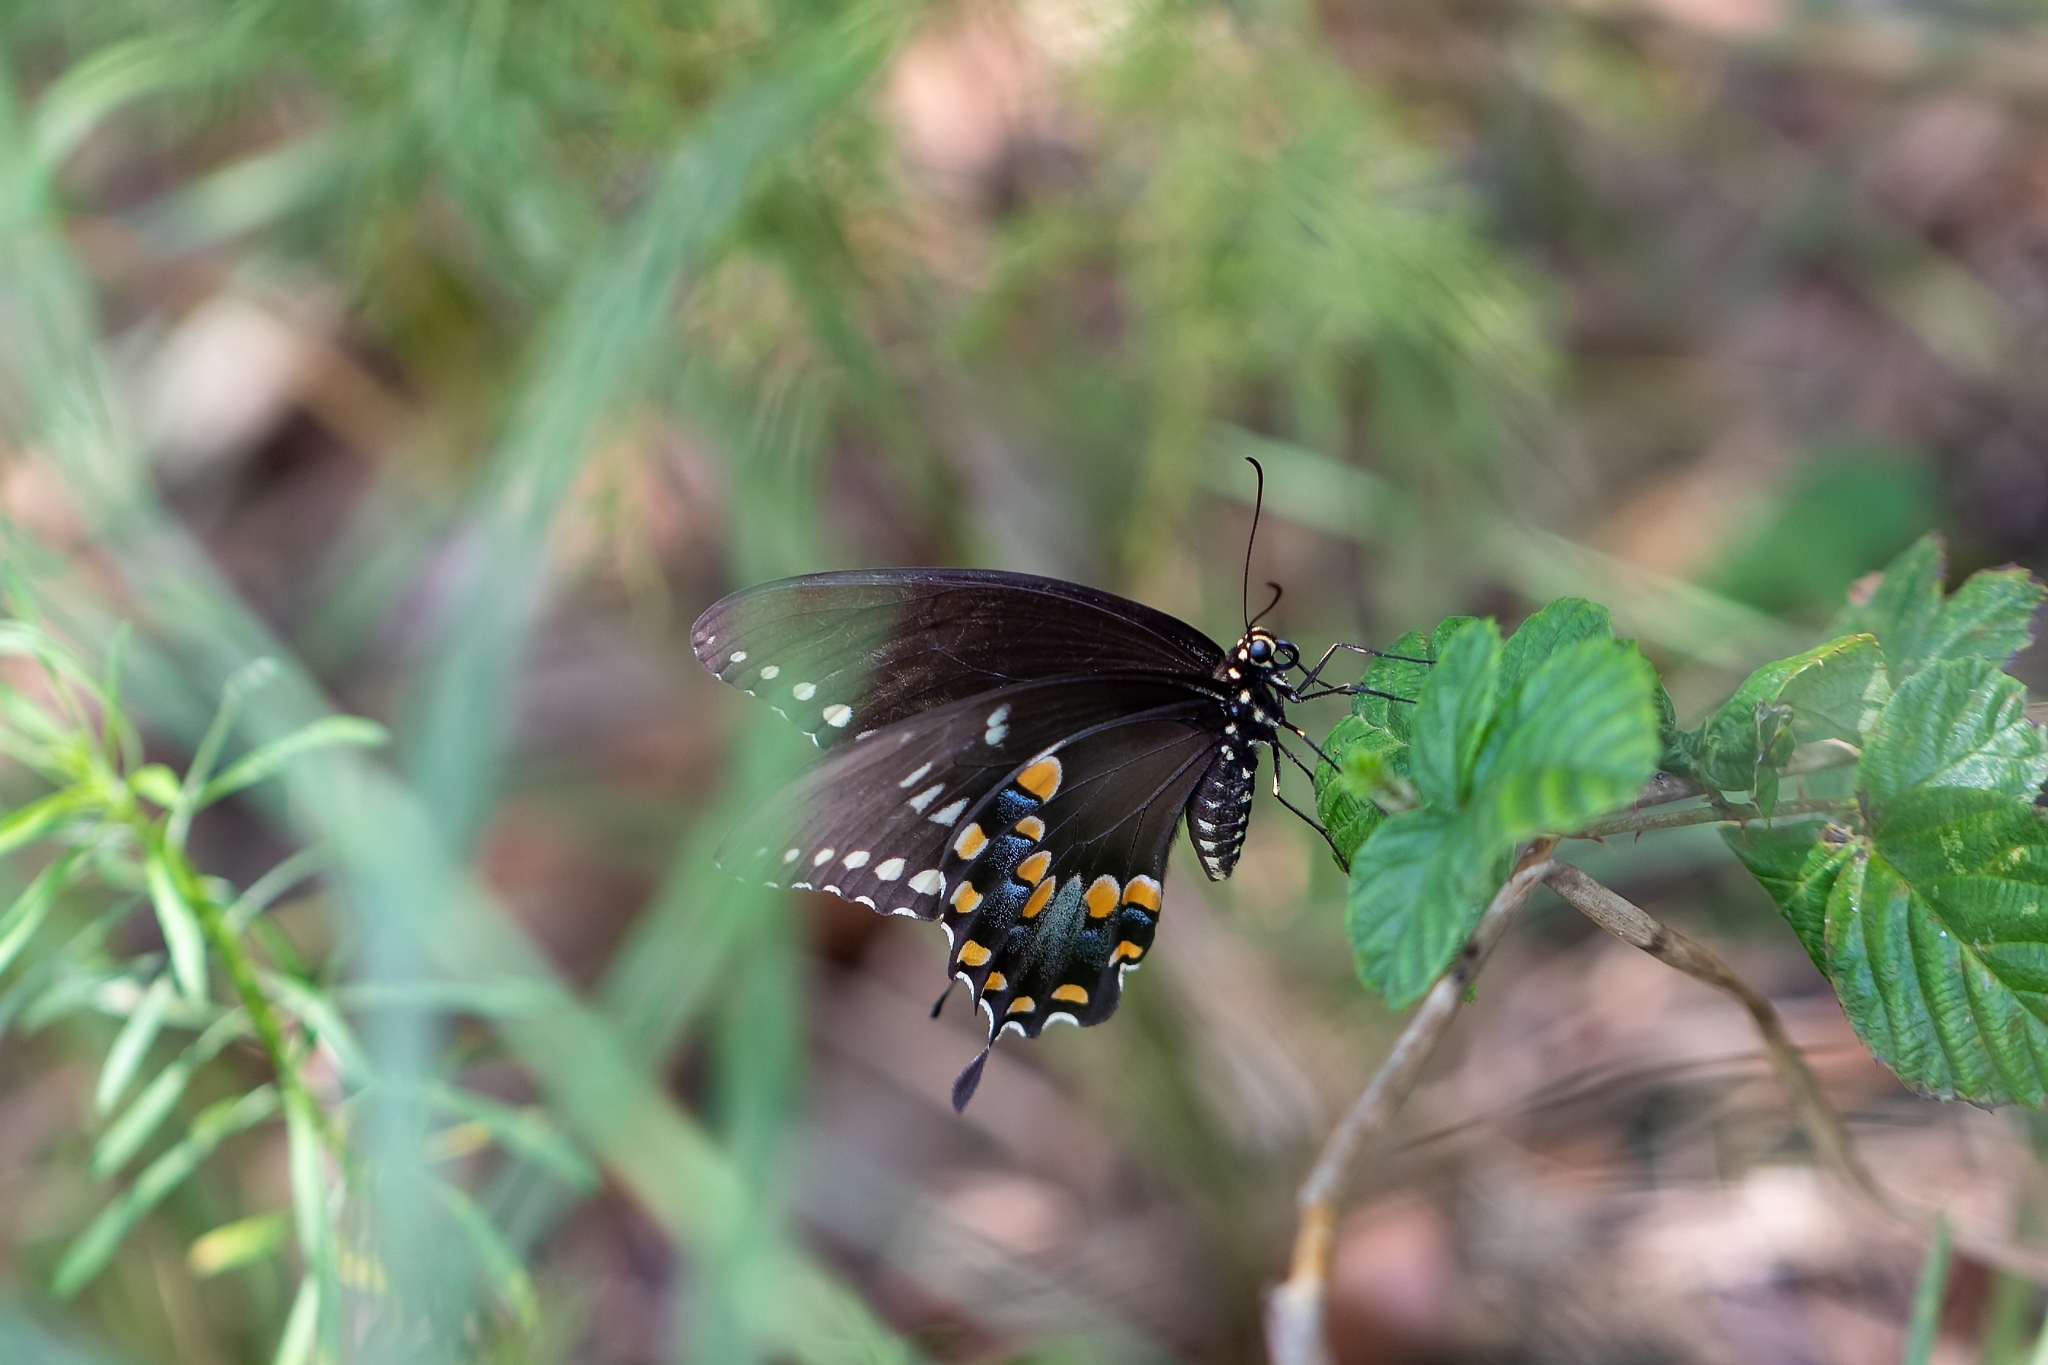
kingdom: Animalia
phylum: Arthropoda
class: Insecta
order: Lepidoptera
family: Papilionidae
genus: Papilio
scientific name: Papilio troilus
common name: Spicebush swallowtail
